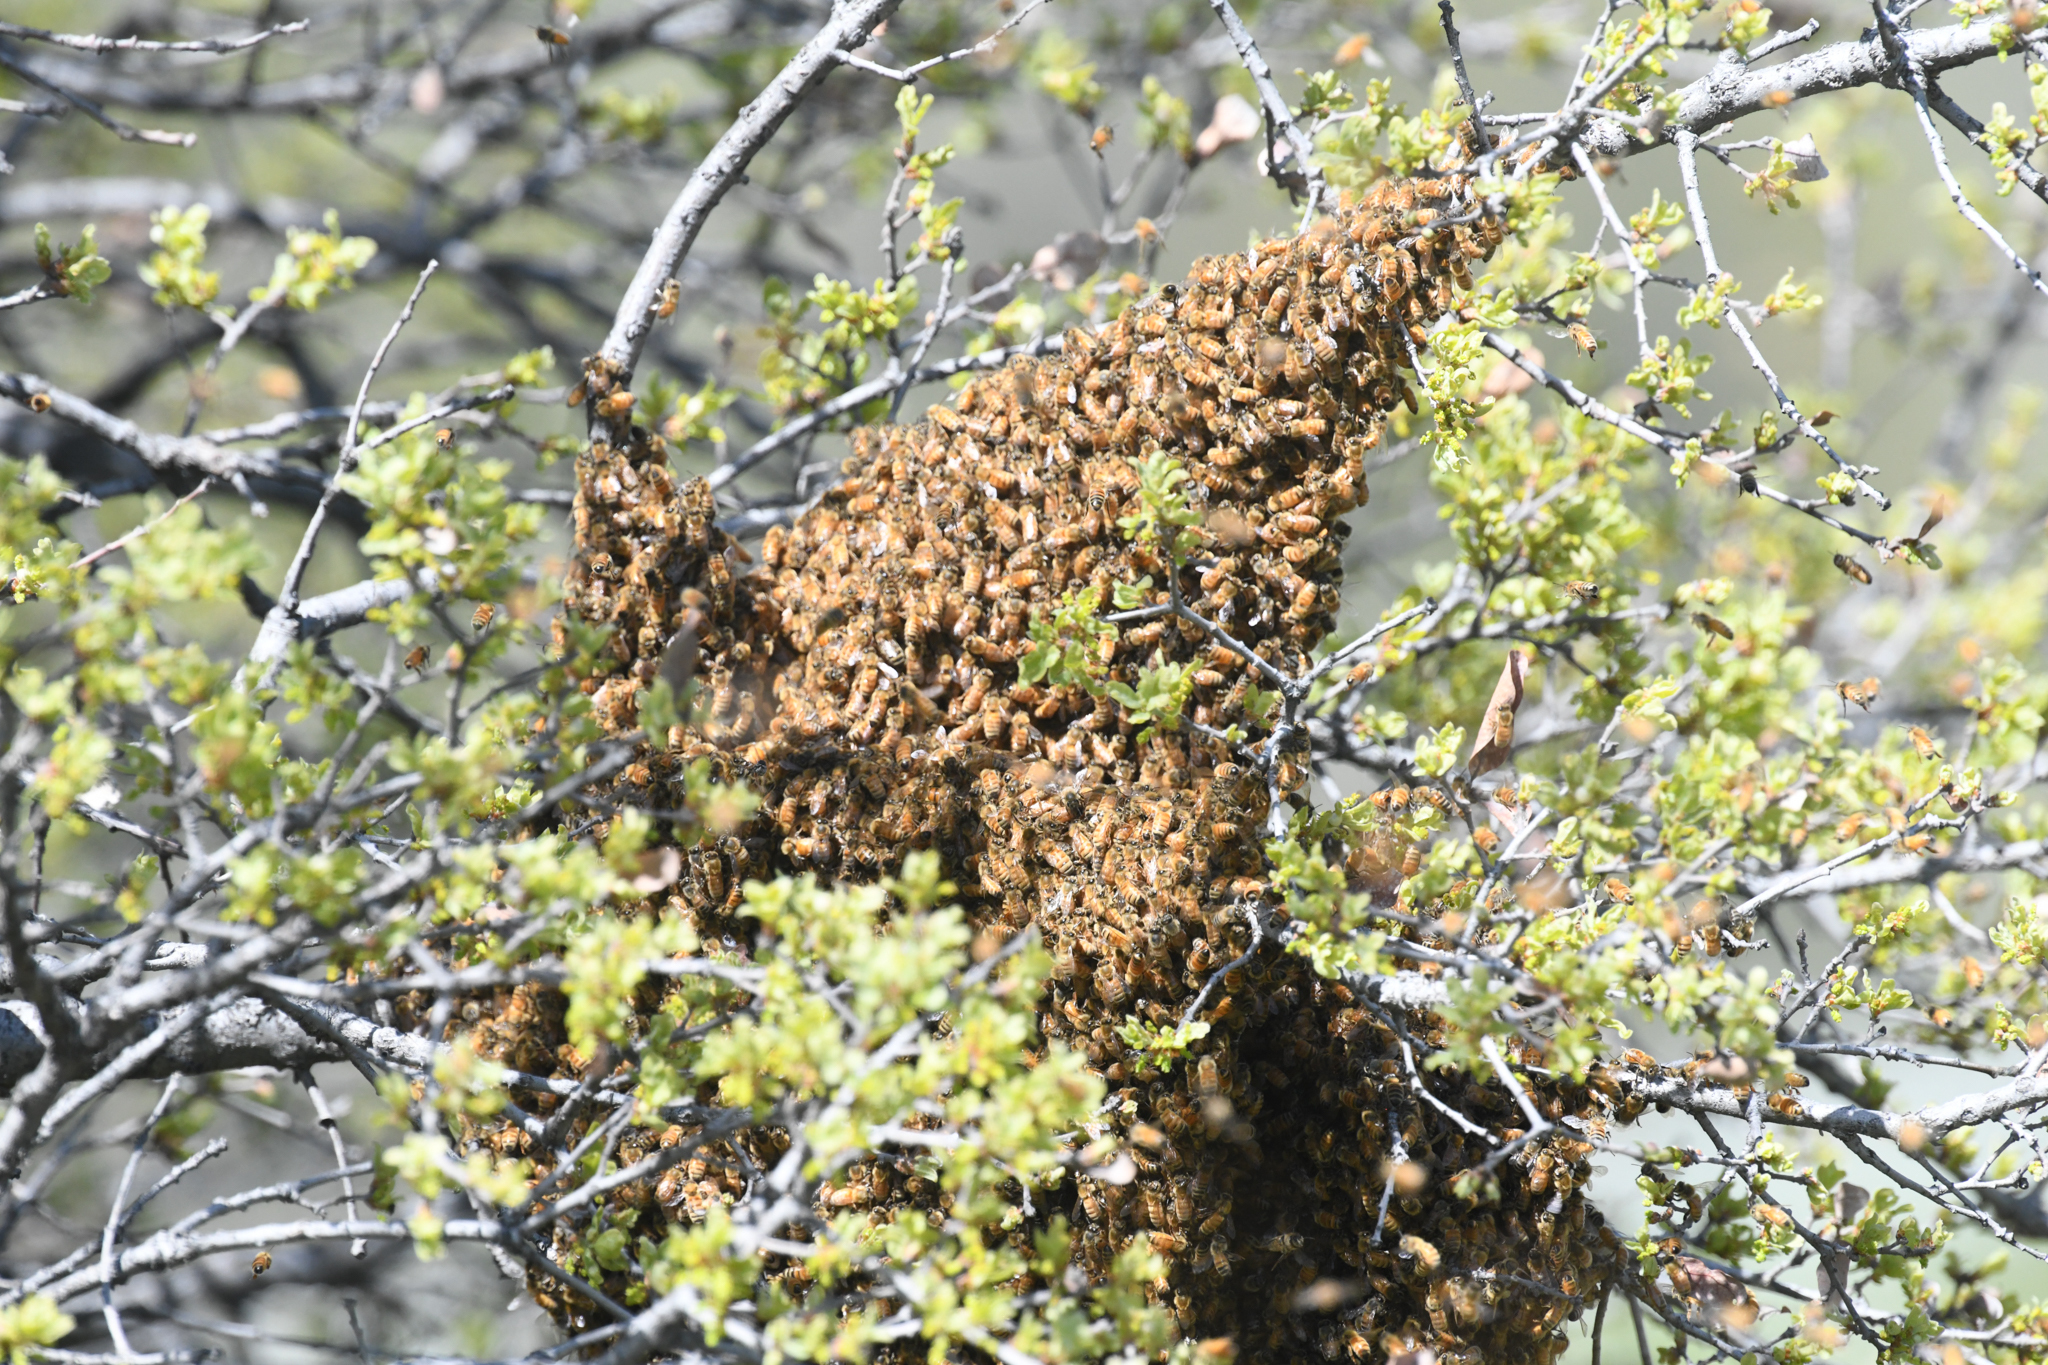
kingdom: Animalia
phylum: Arthropoda
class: Insecta
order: Hymenoptera
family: Apidae
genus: Apis
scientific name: Apis mellifera
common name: Honey bee
